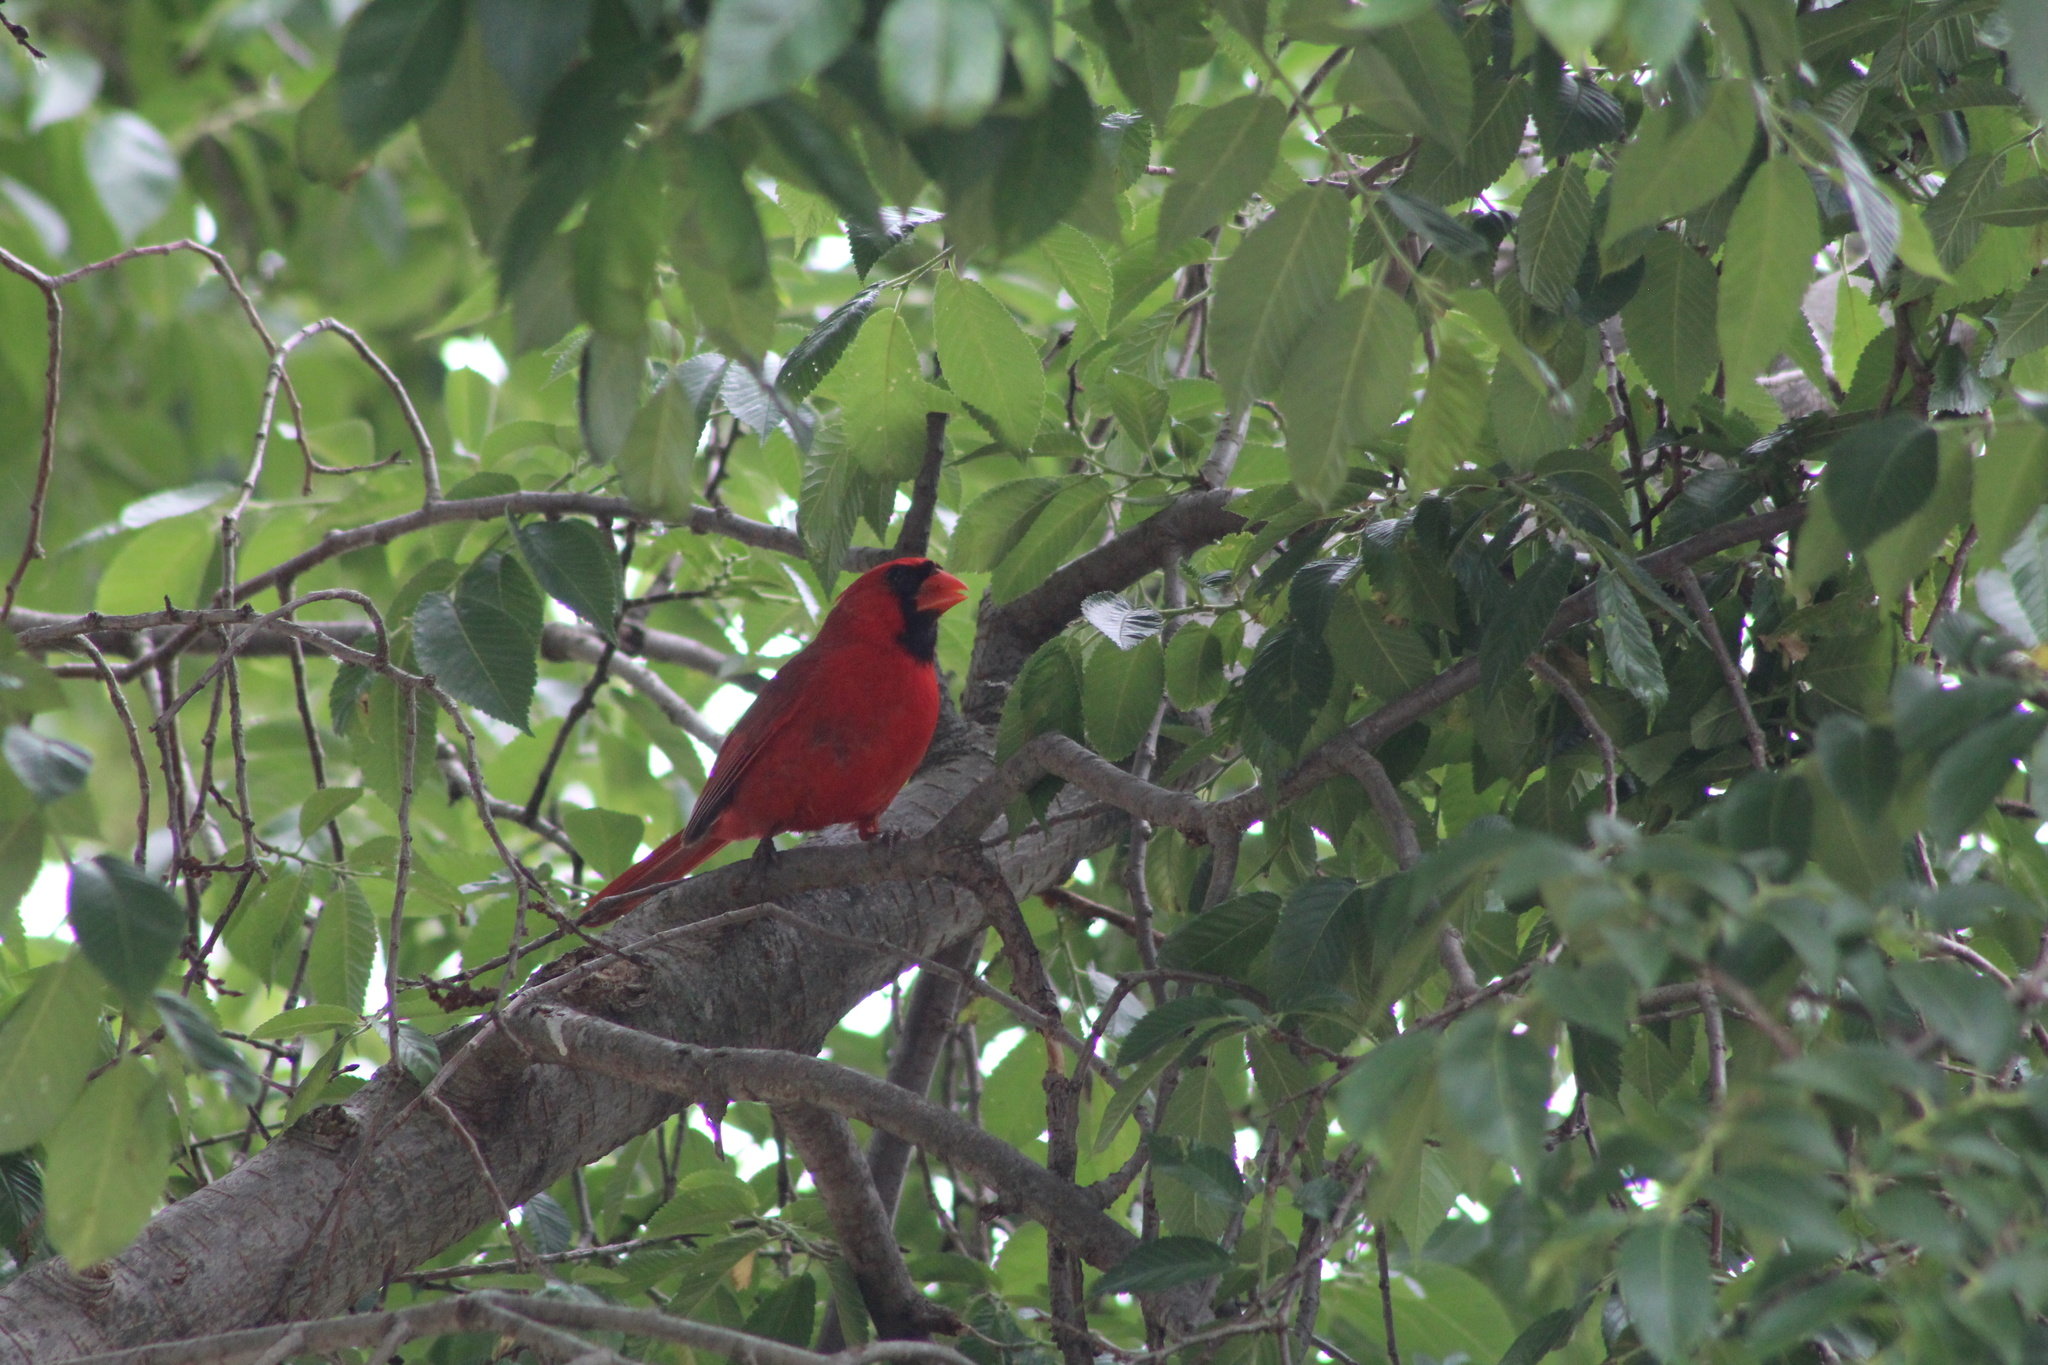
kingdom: Animalia
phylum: Chordata
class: Aves
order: Passeriformes
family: Cardinalidae
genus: Cardinalis
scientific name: Cardinalis cardinalis
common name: Northern cardinal
